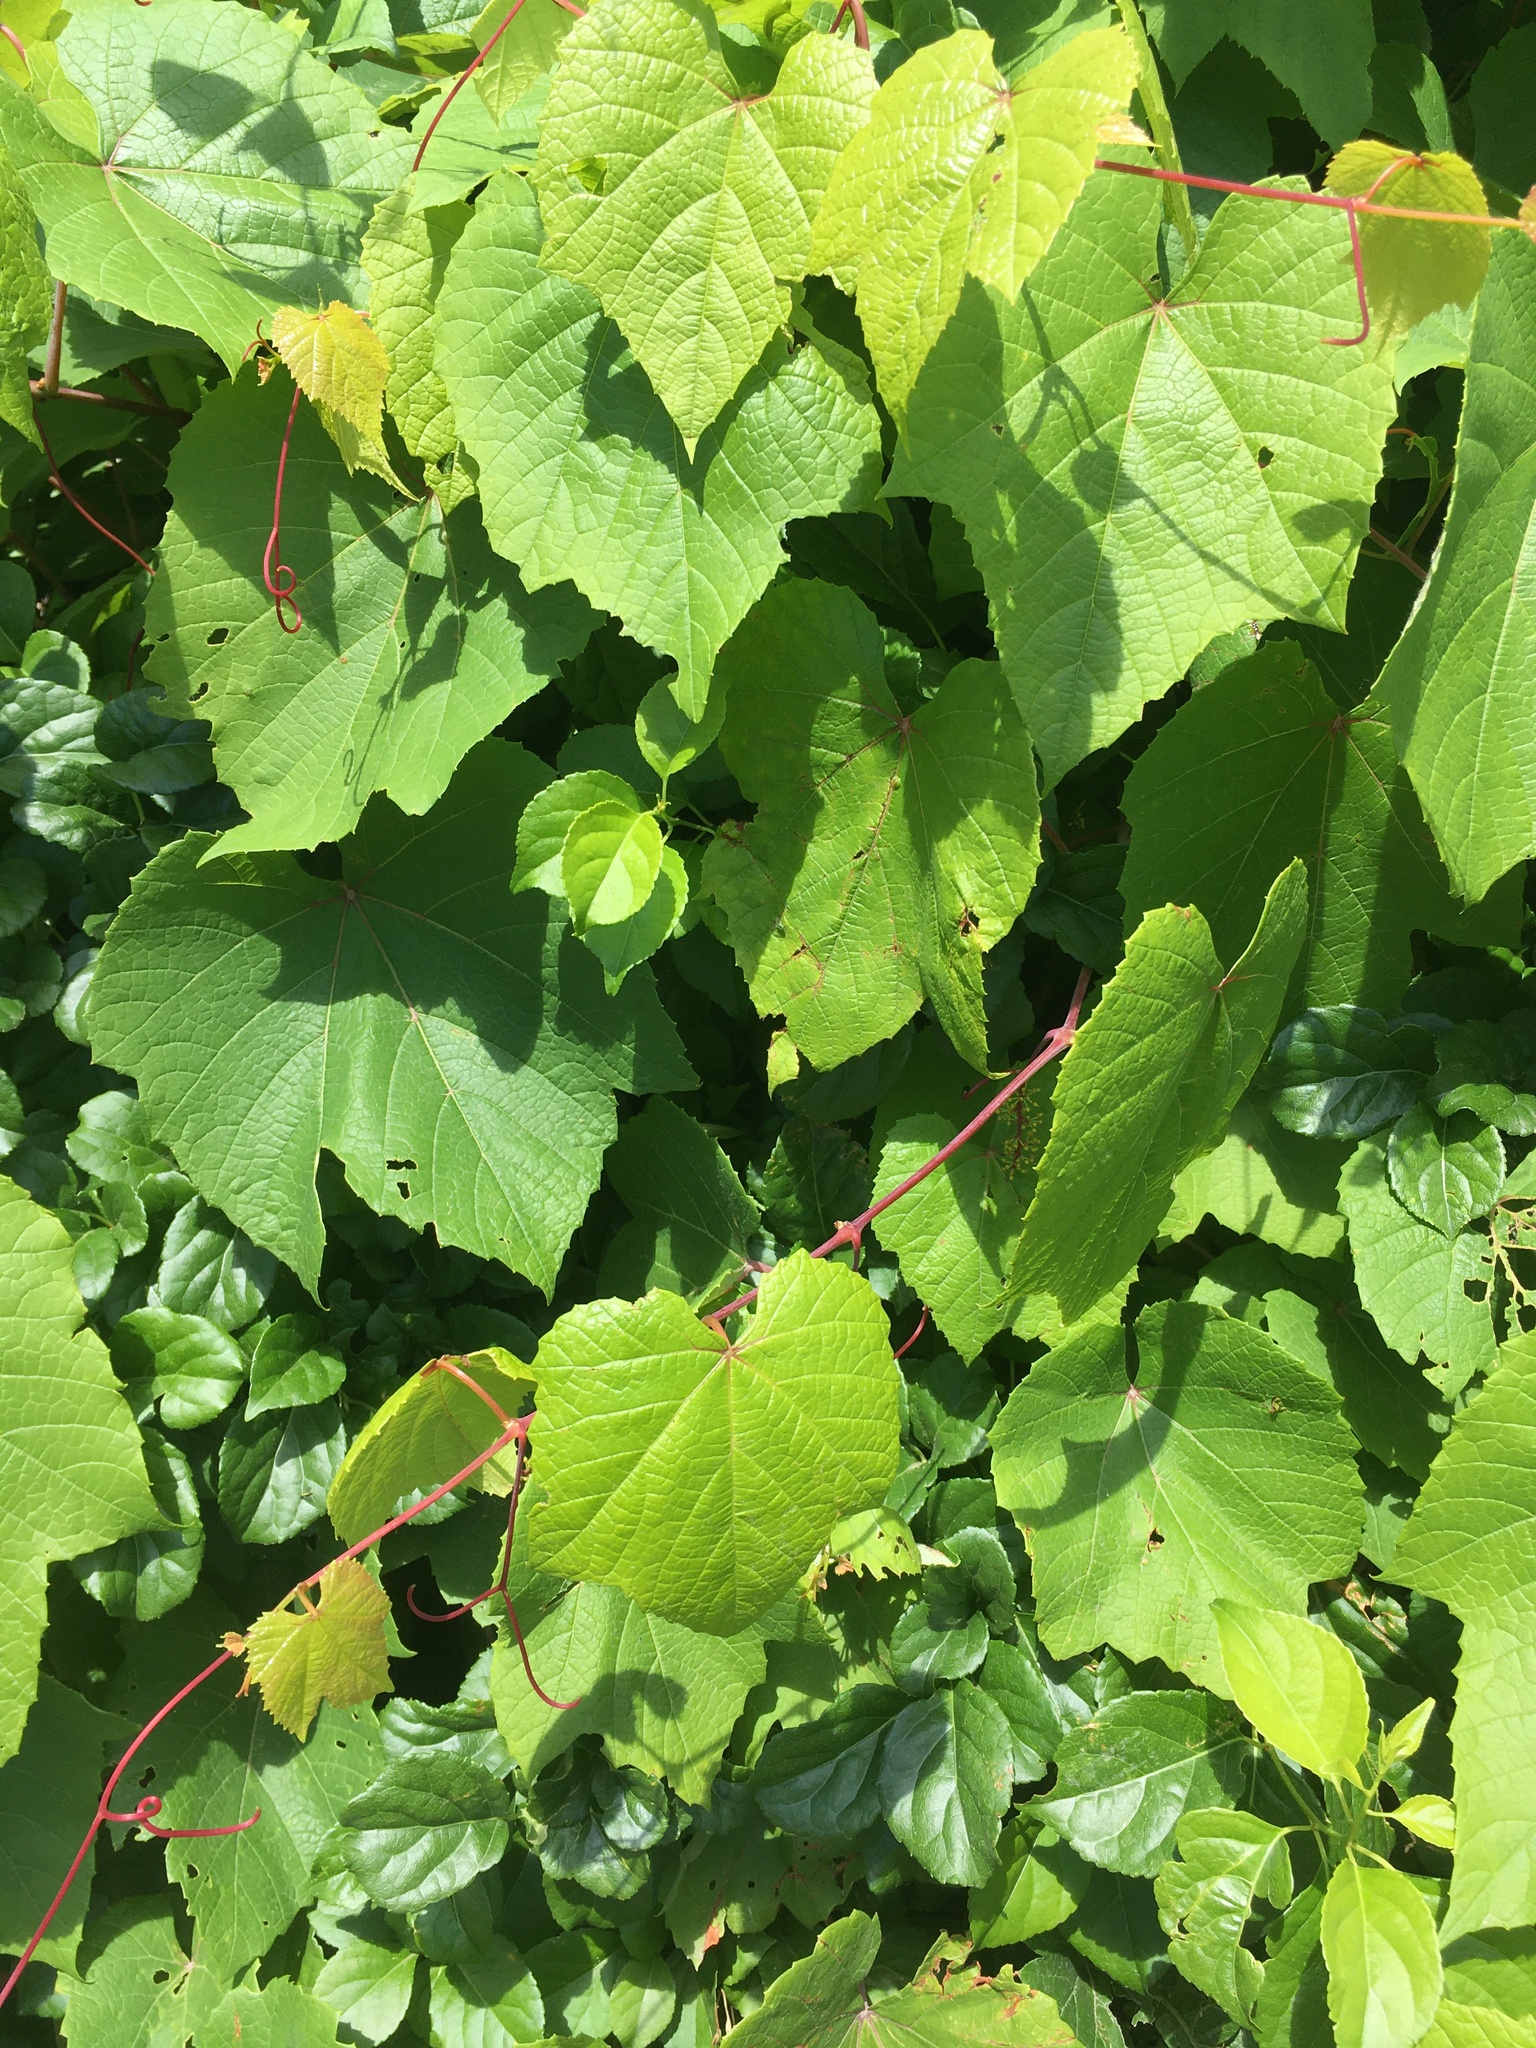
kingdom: Plantae
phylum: Tracheophyta
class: Magnoliopsida
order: Vitales
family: Vitaceae
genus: Vitis
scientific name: Vitis aestivalis
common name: Pigeon grape
